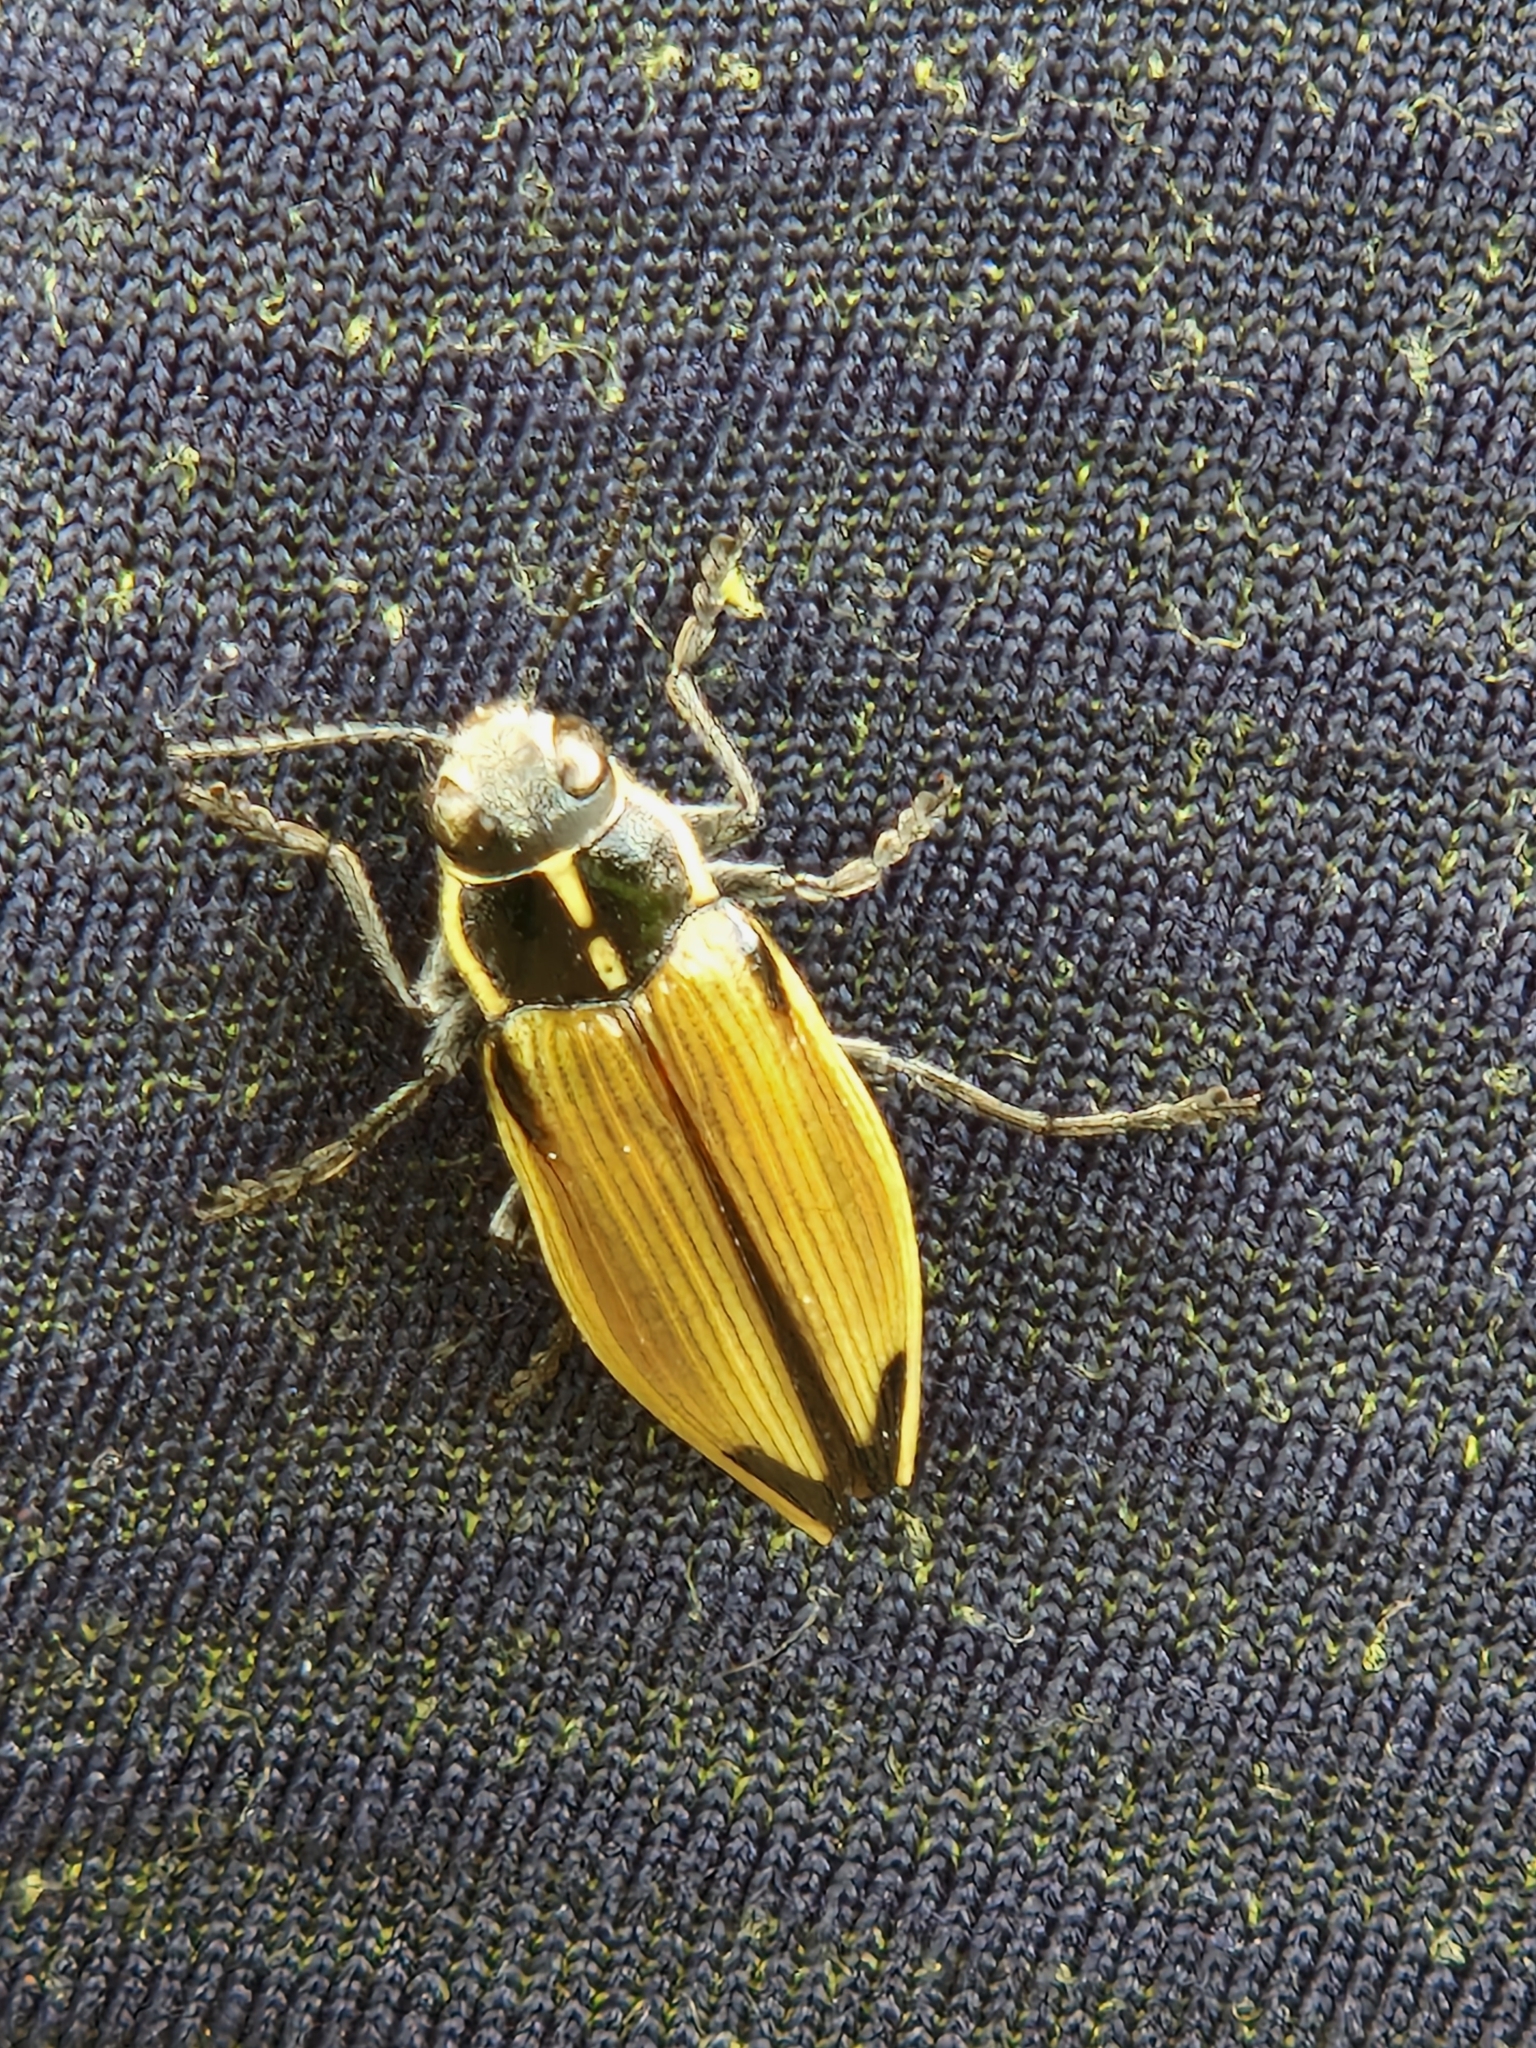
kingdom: Animalia
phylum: Arthropoda
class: Insecta
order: Coleoptera
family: Buprestidae
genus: Epistomentis
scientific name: Epistomentis pictus
